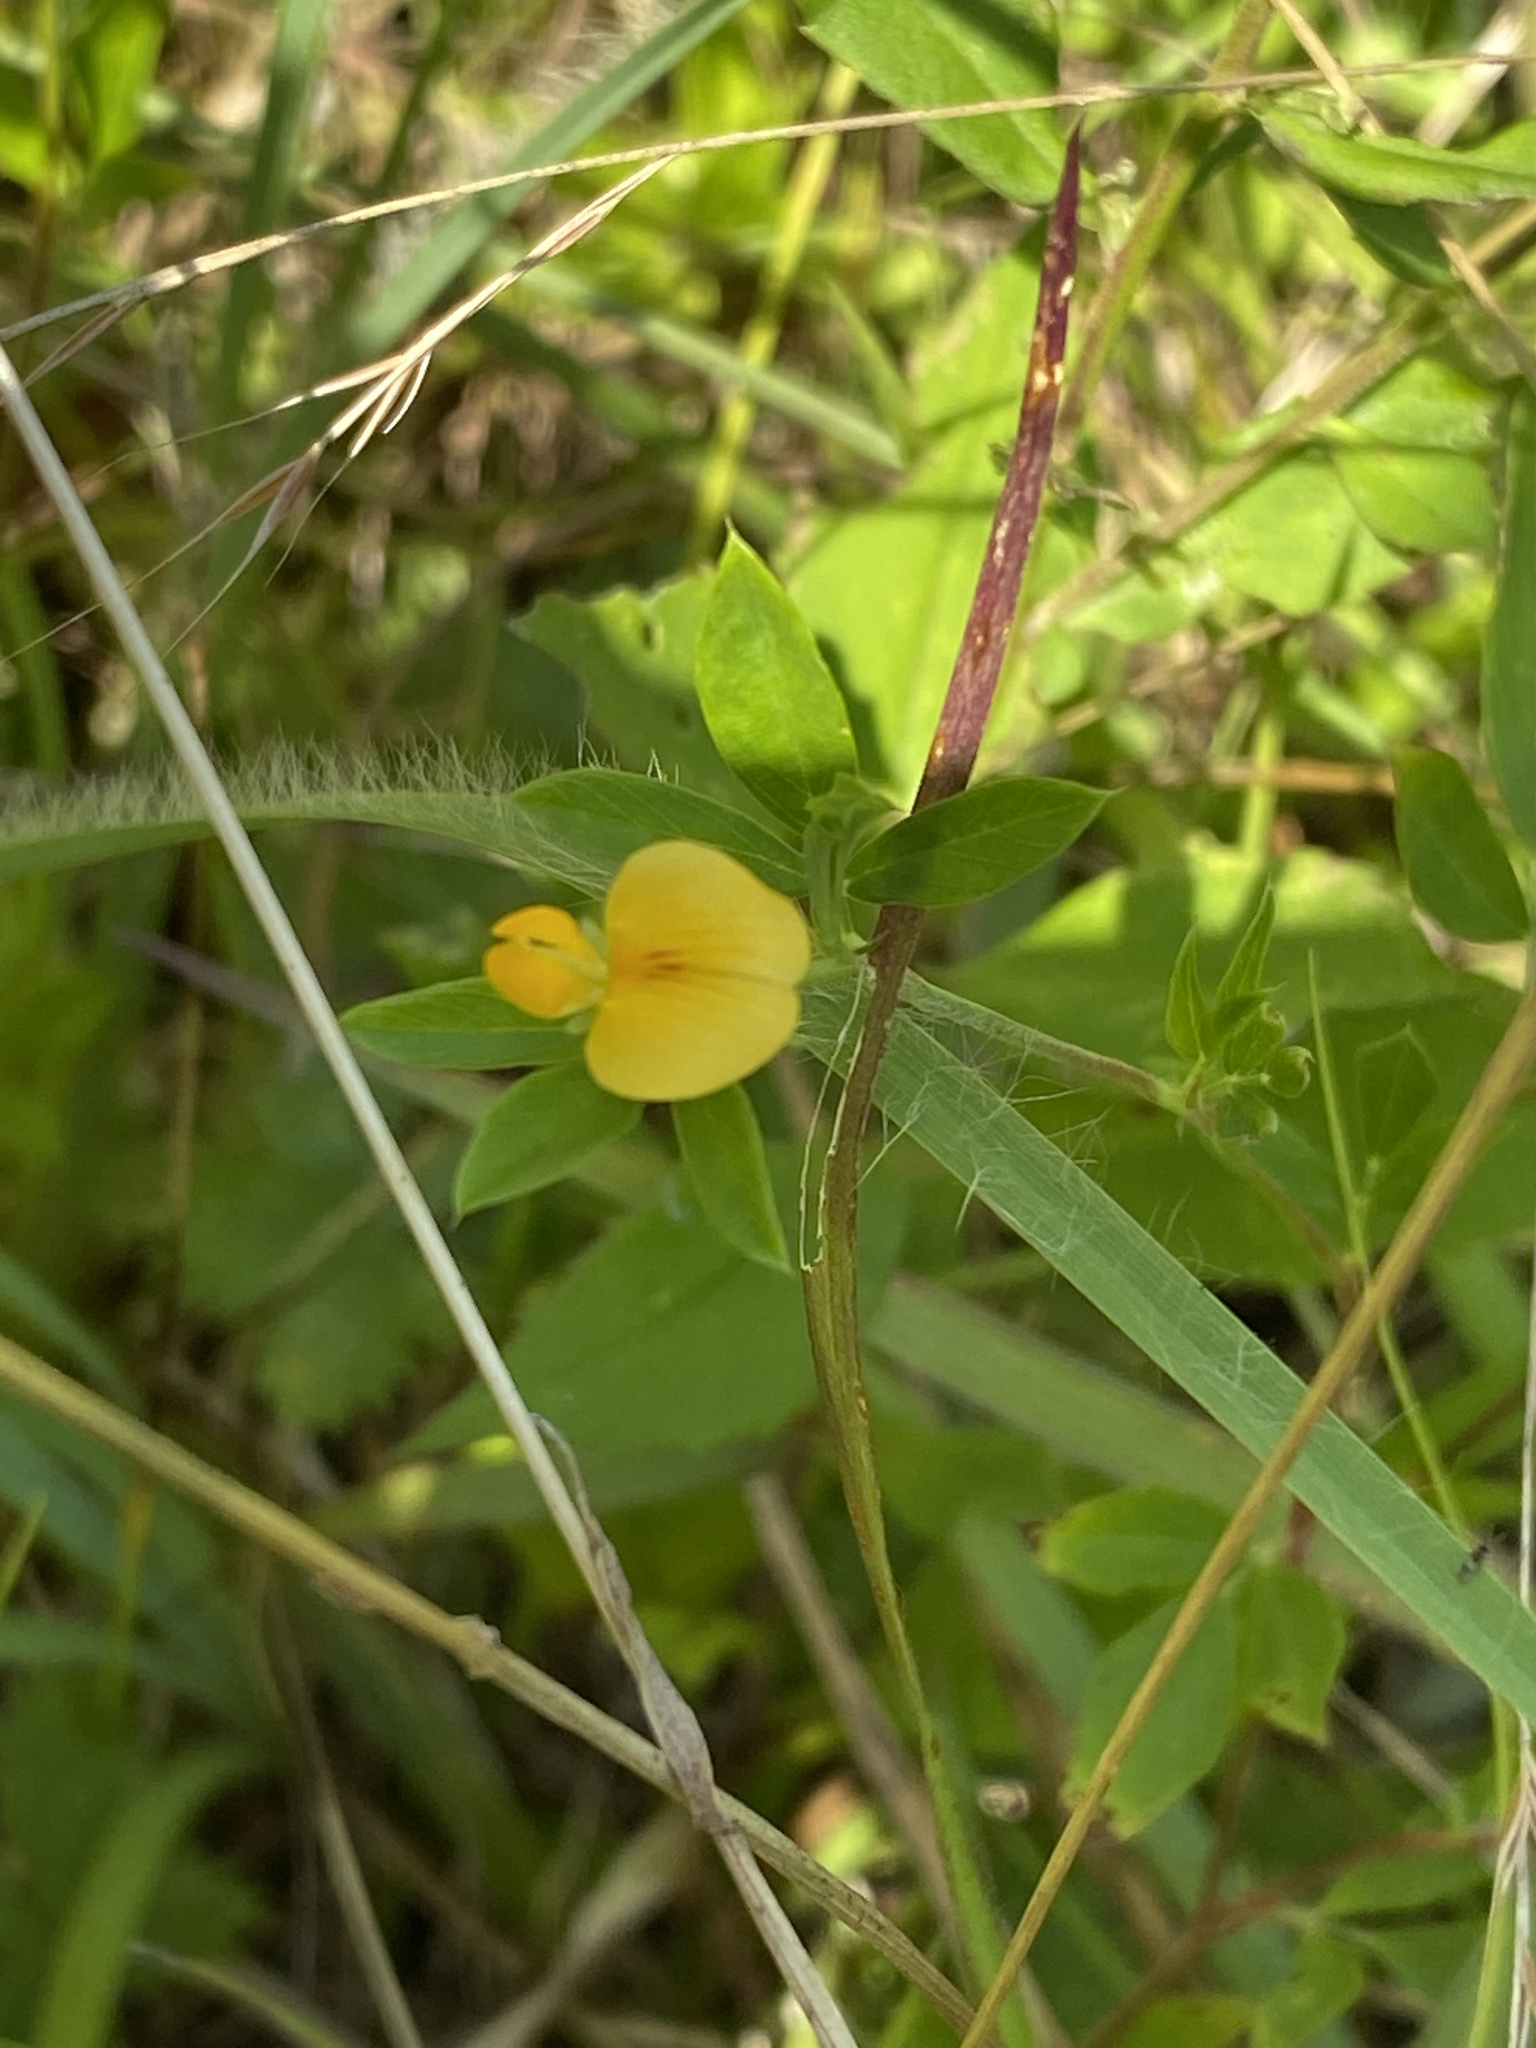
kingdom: Plantae
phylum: Tracheophyta
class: Magnoliopsida
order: Fabales
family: Fabaceae
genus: Stylosanthes
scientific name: Stylosanthes biflora
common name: Two-flower pencil-flower
